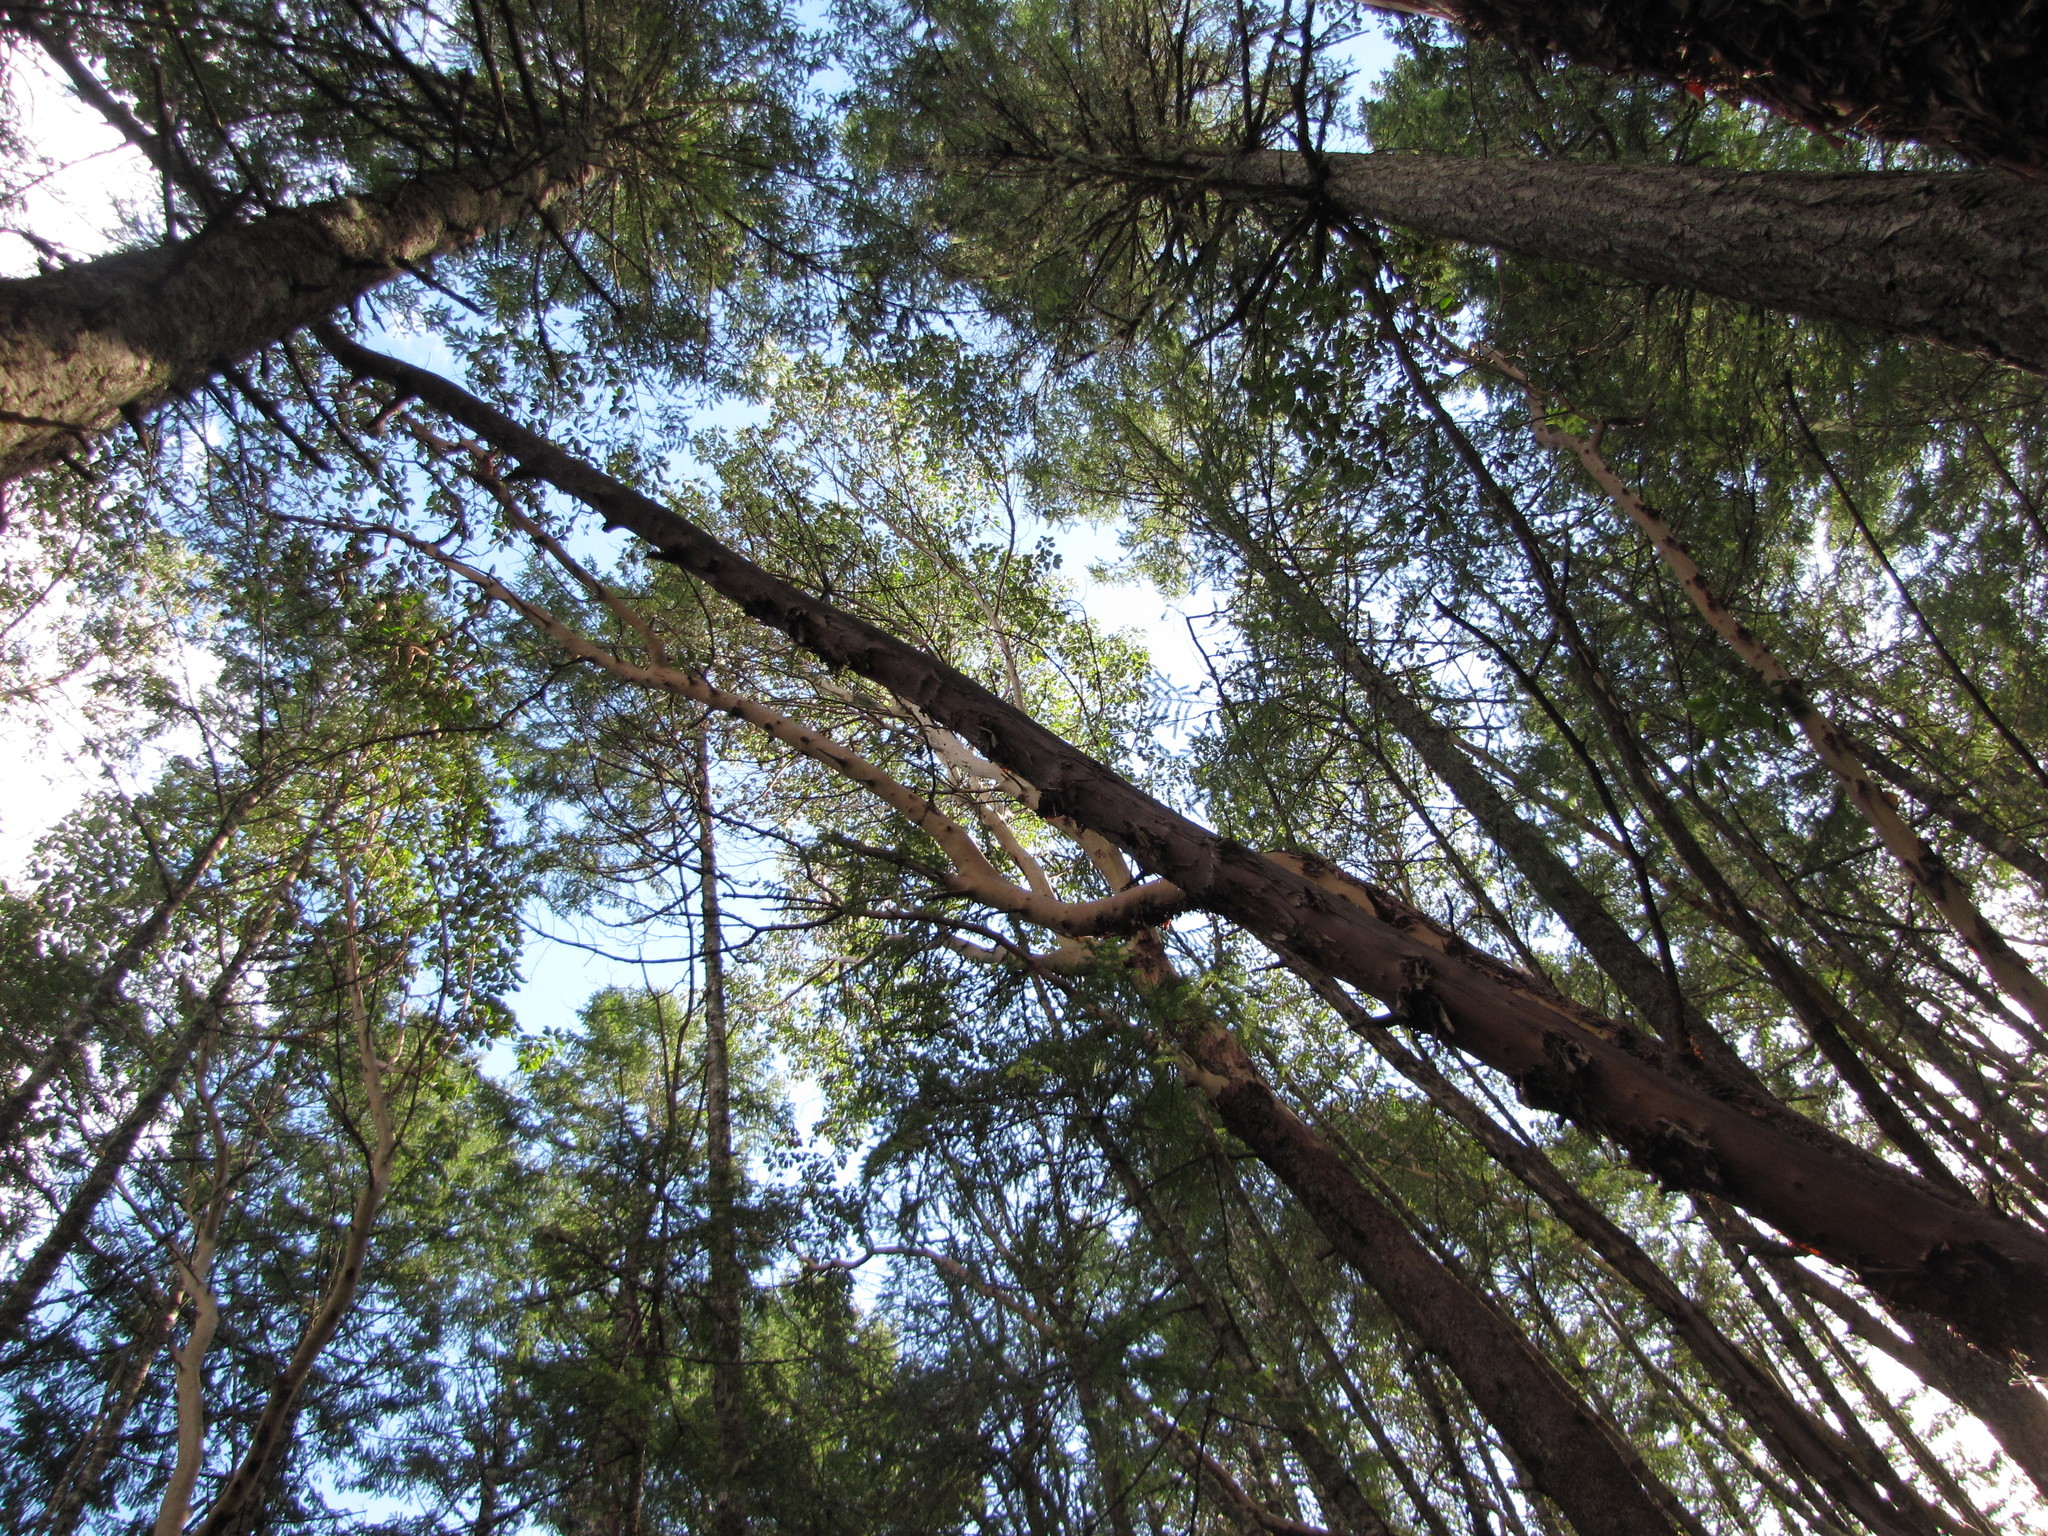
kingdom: Plantae
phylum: Tracheophyta
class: Magnoliopsida
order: Ericales
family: Ericaceae
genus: Arbutus
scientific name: Arbutus menziesii
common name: Pacific madrone
